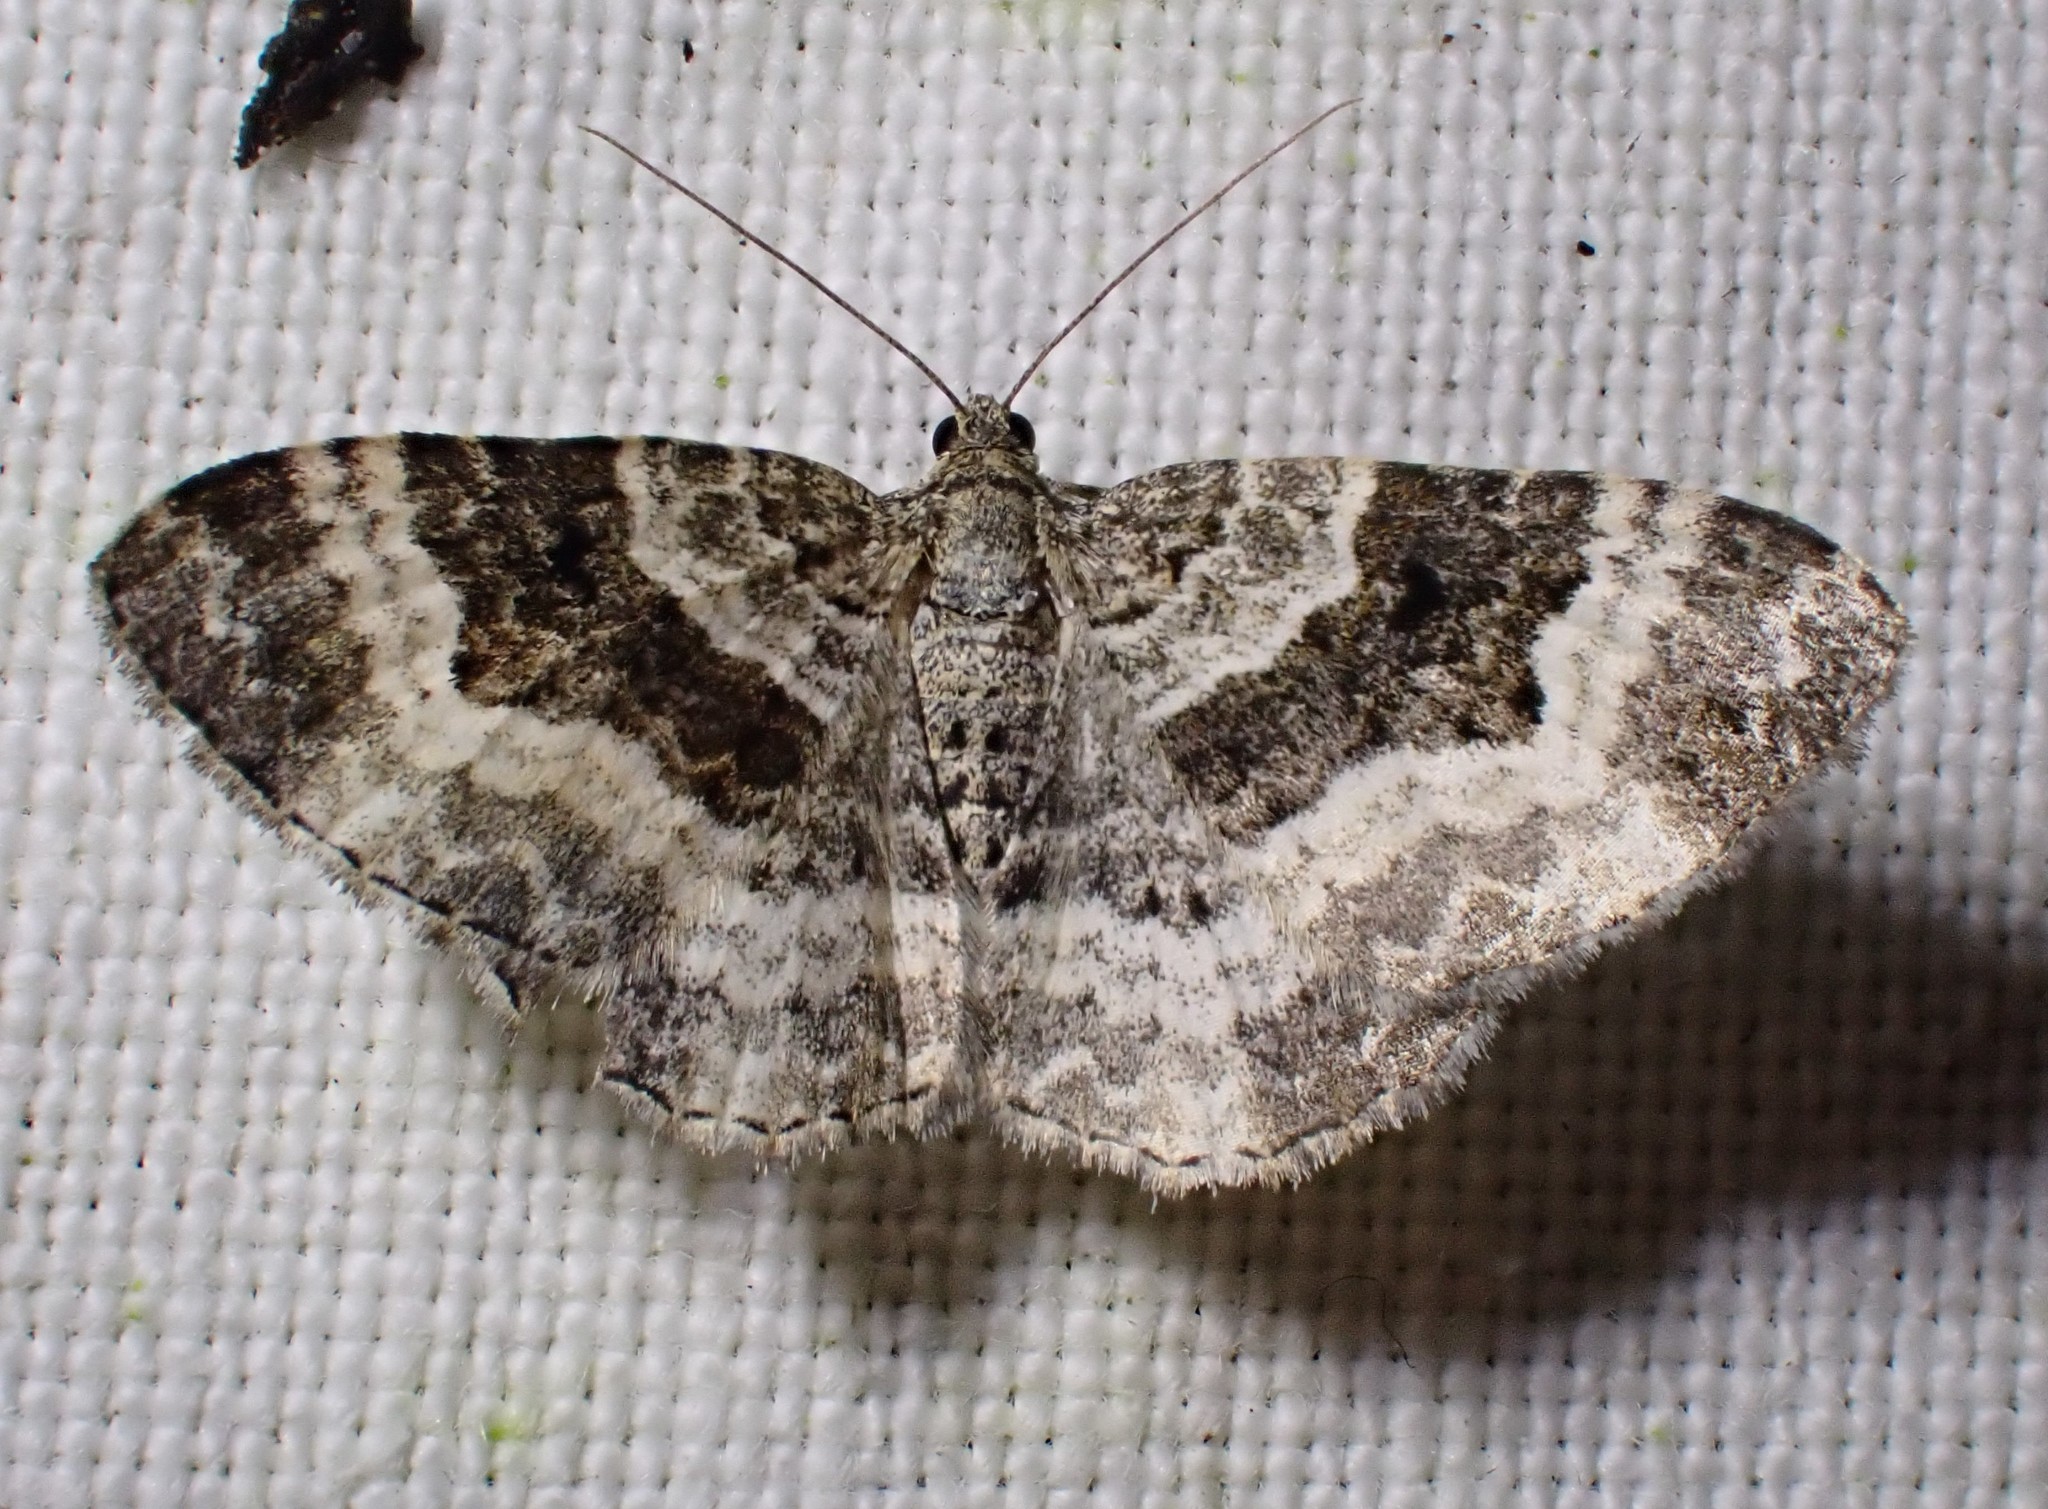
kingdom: Animalia
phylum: Arthropoda
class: Insecta
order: Lepidoptera
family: Geometridae
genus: Epirrhoe
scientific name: Epirrhoe alternata
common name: Common carpet
